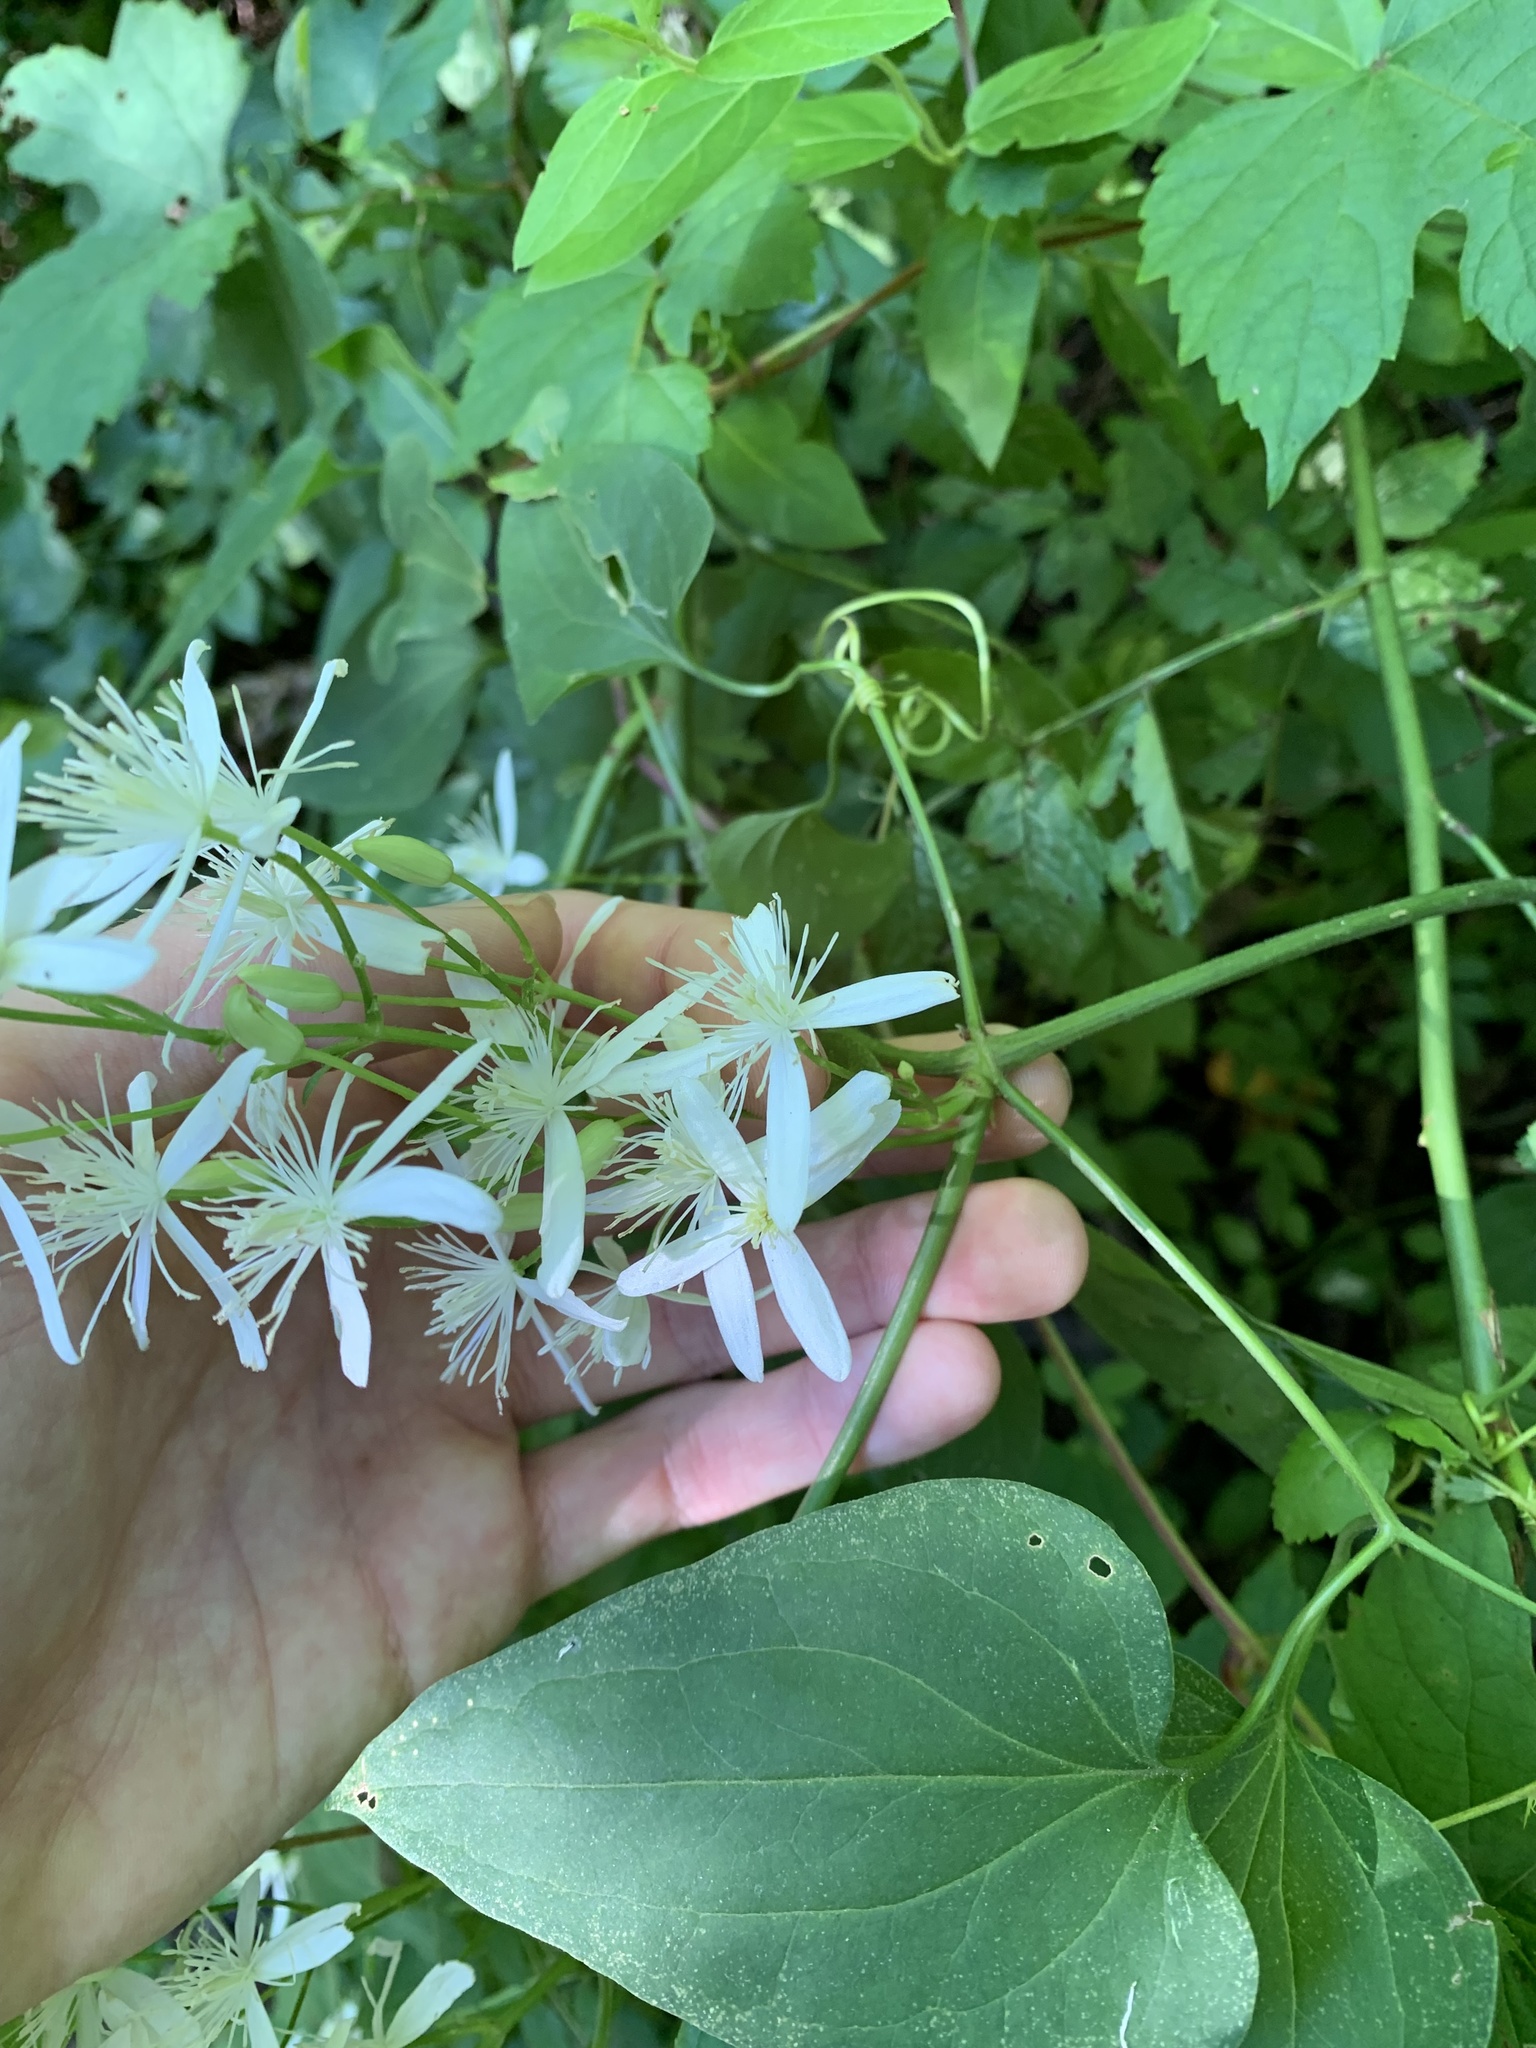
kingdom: Plantae
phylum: Tracheophyta
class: Magnoliopsida
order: Ranunculales
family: Ranunculaceae
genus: Clematis
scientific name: Clematis terniflora
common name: Sweet autumn clematis
